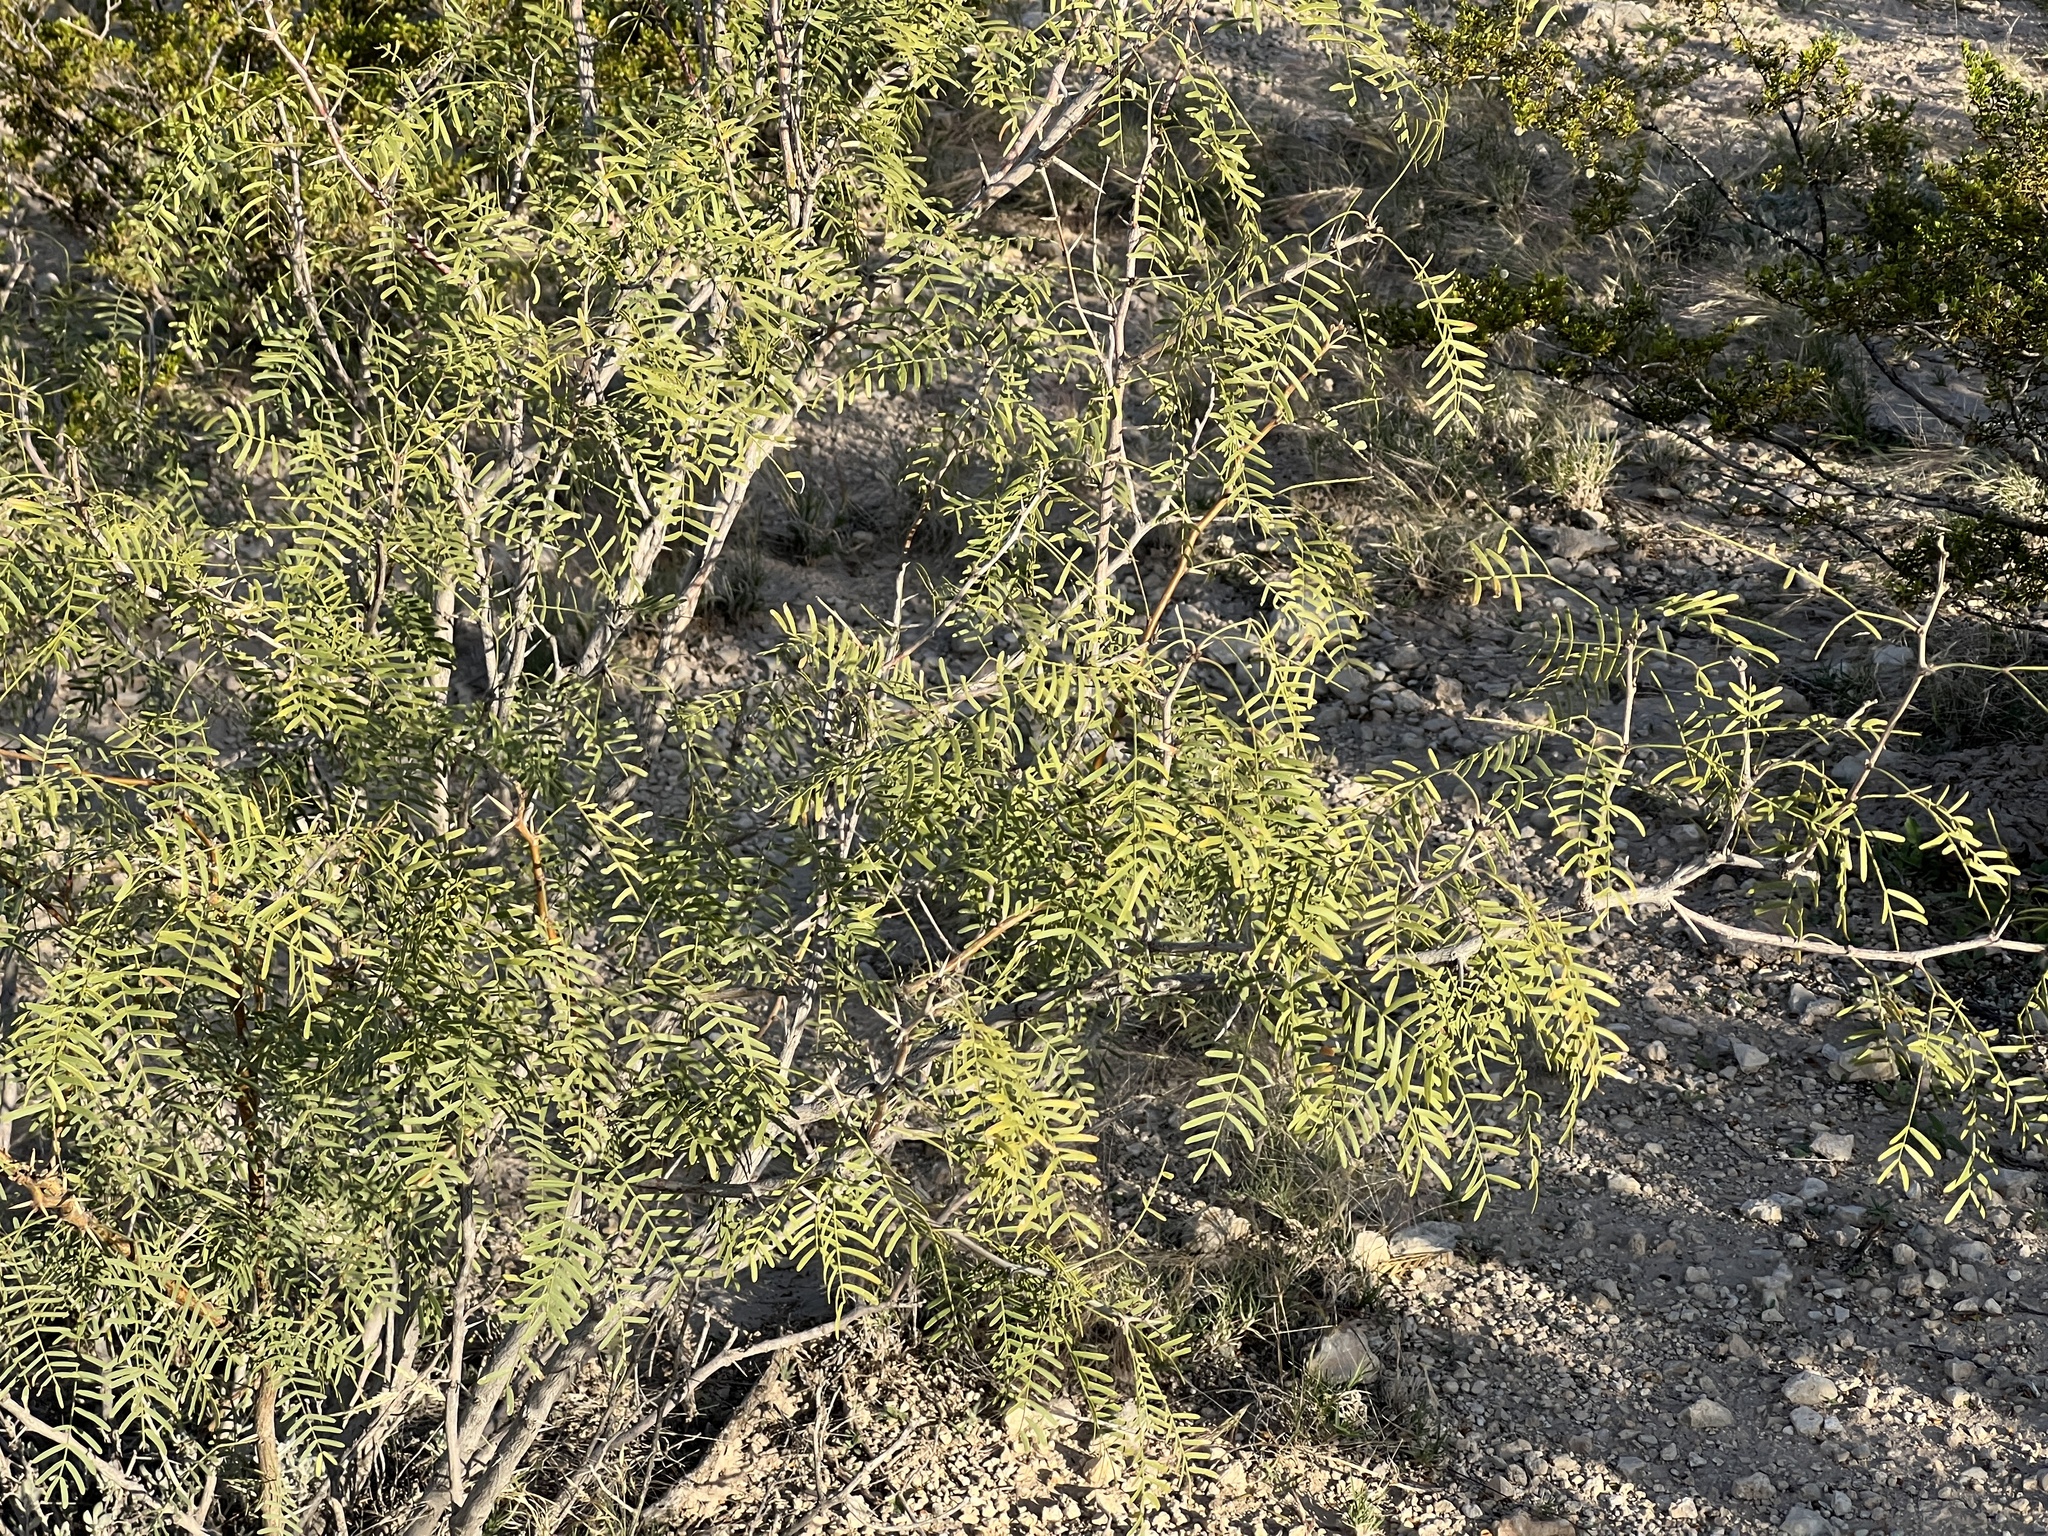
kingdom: Plantae
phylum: Tracheophyta
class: Magnoliopsida
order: Fabales
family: Fabaceae
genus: Prosopis
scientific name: Prosopis pubescens
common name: Screw-bean
